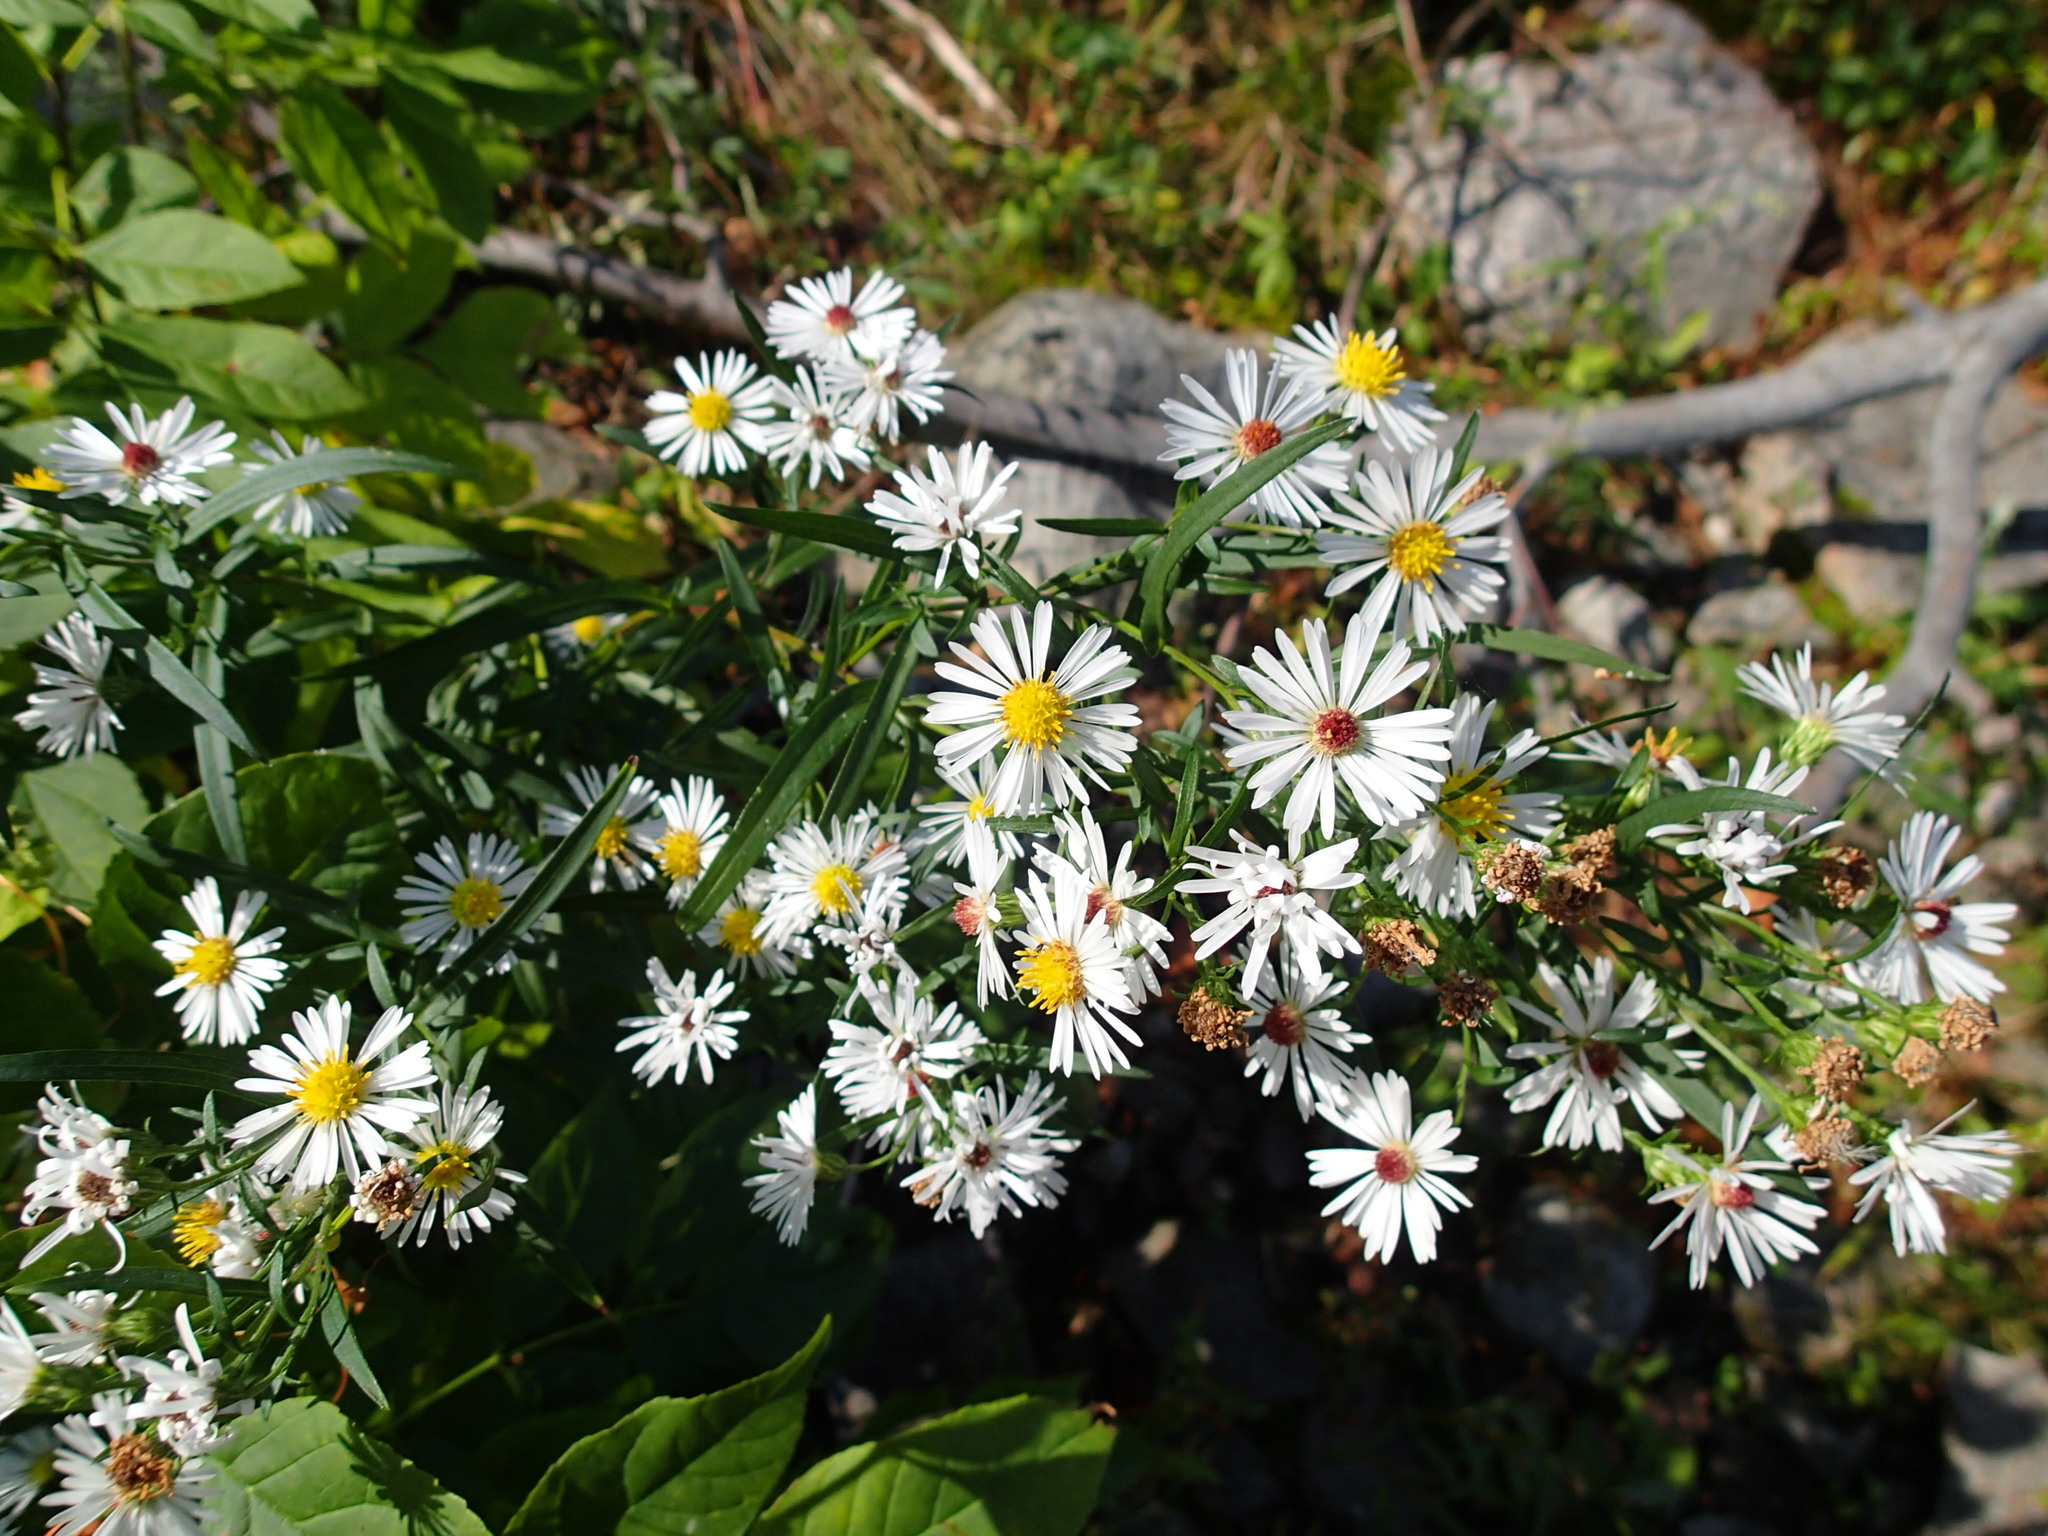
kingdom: Plantae
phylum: Tracheophyta
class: Magnoliopsida
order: Asterales
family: Asteraceae
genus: Symphyotrichum
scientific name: Symphyotrichum lanceolatum
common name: Panicled aster
